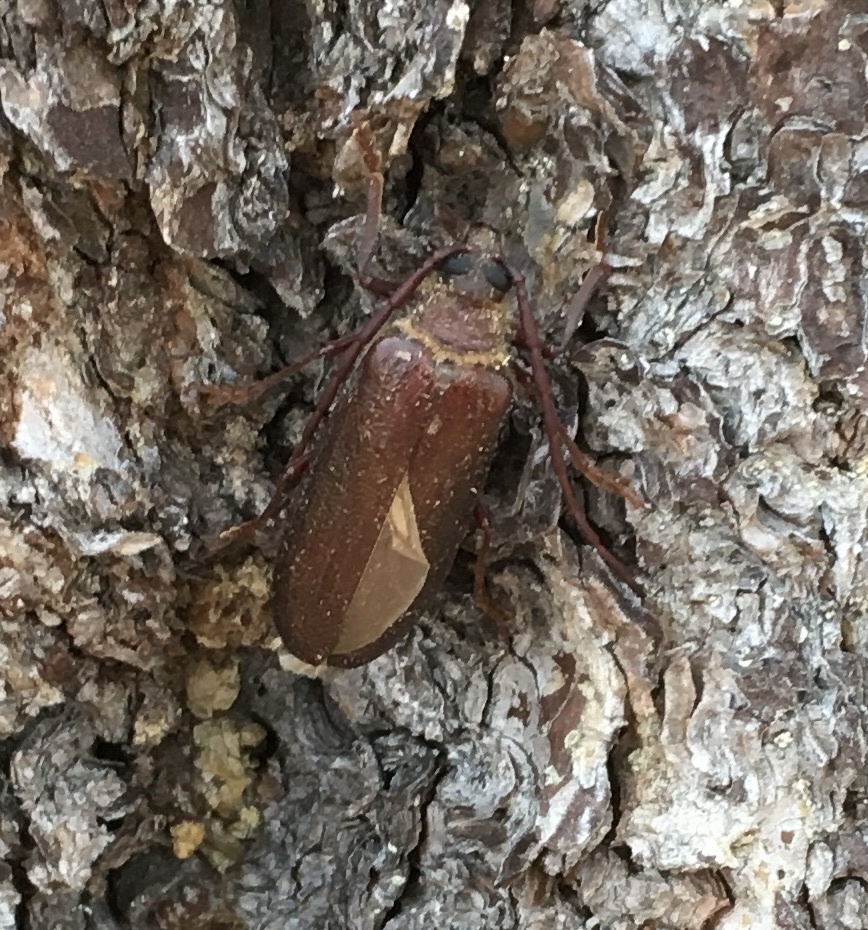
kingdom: Animalia
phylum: Arthropoda
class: Insecta
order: Coleoptera
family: Cerambycidae
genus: Tragosoma
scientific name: Tragosoma harrisii
